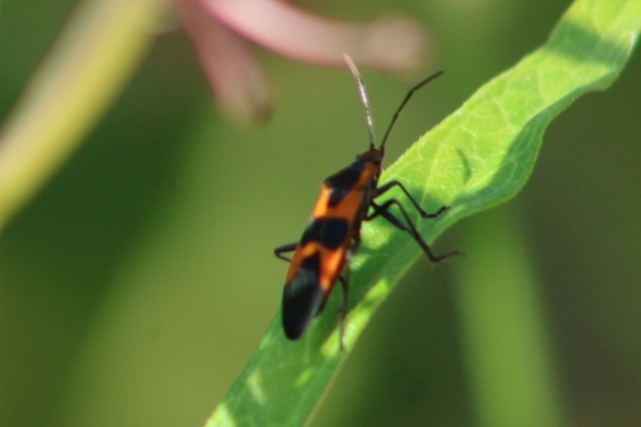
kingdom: Animalia
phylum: Arthropoda
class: Insecta
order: Hemiptera
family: Lygaeidae
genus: Oncopeltus
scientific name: Oncopeltus fasciatus
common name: Large milkweed bug
